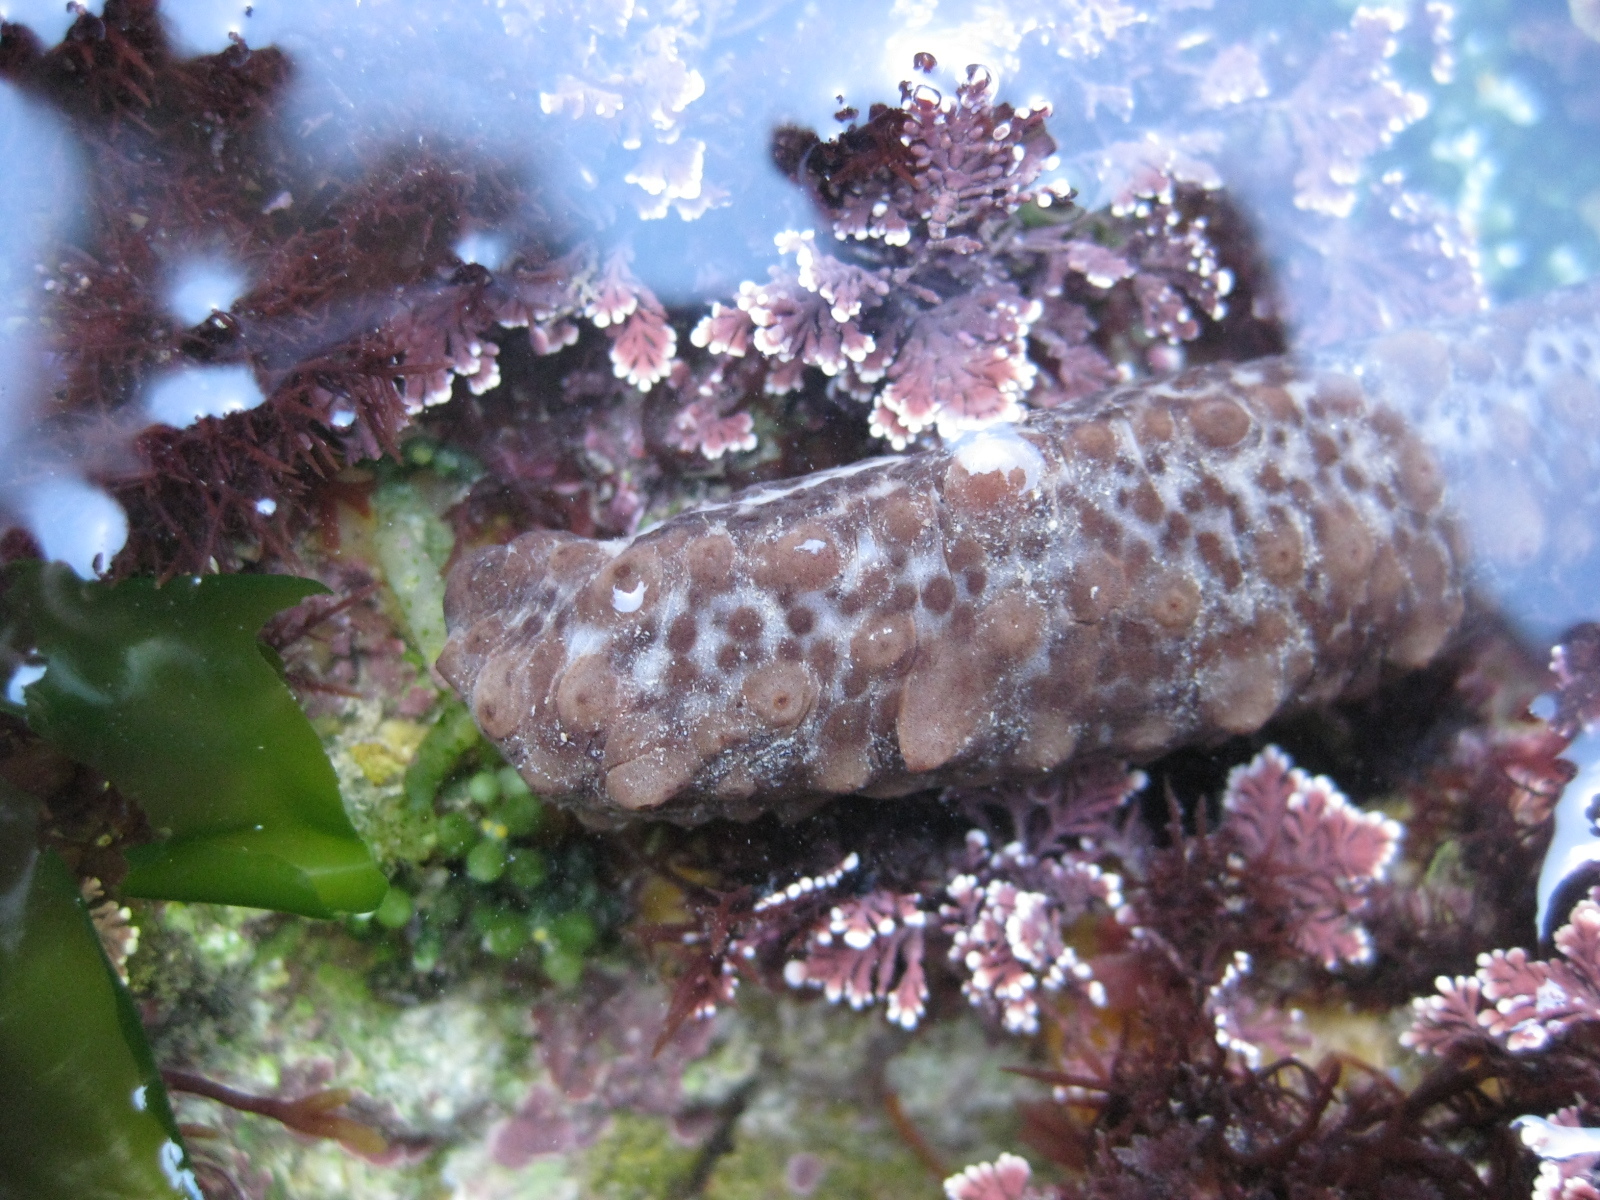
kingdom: Animalia
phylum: Echinodermata
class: Holothuroidea
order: Synallactida
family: Stichopodidae
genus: Australostichopus
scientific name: Australostichopus mollis
